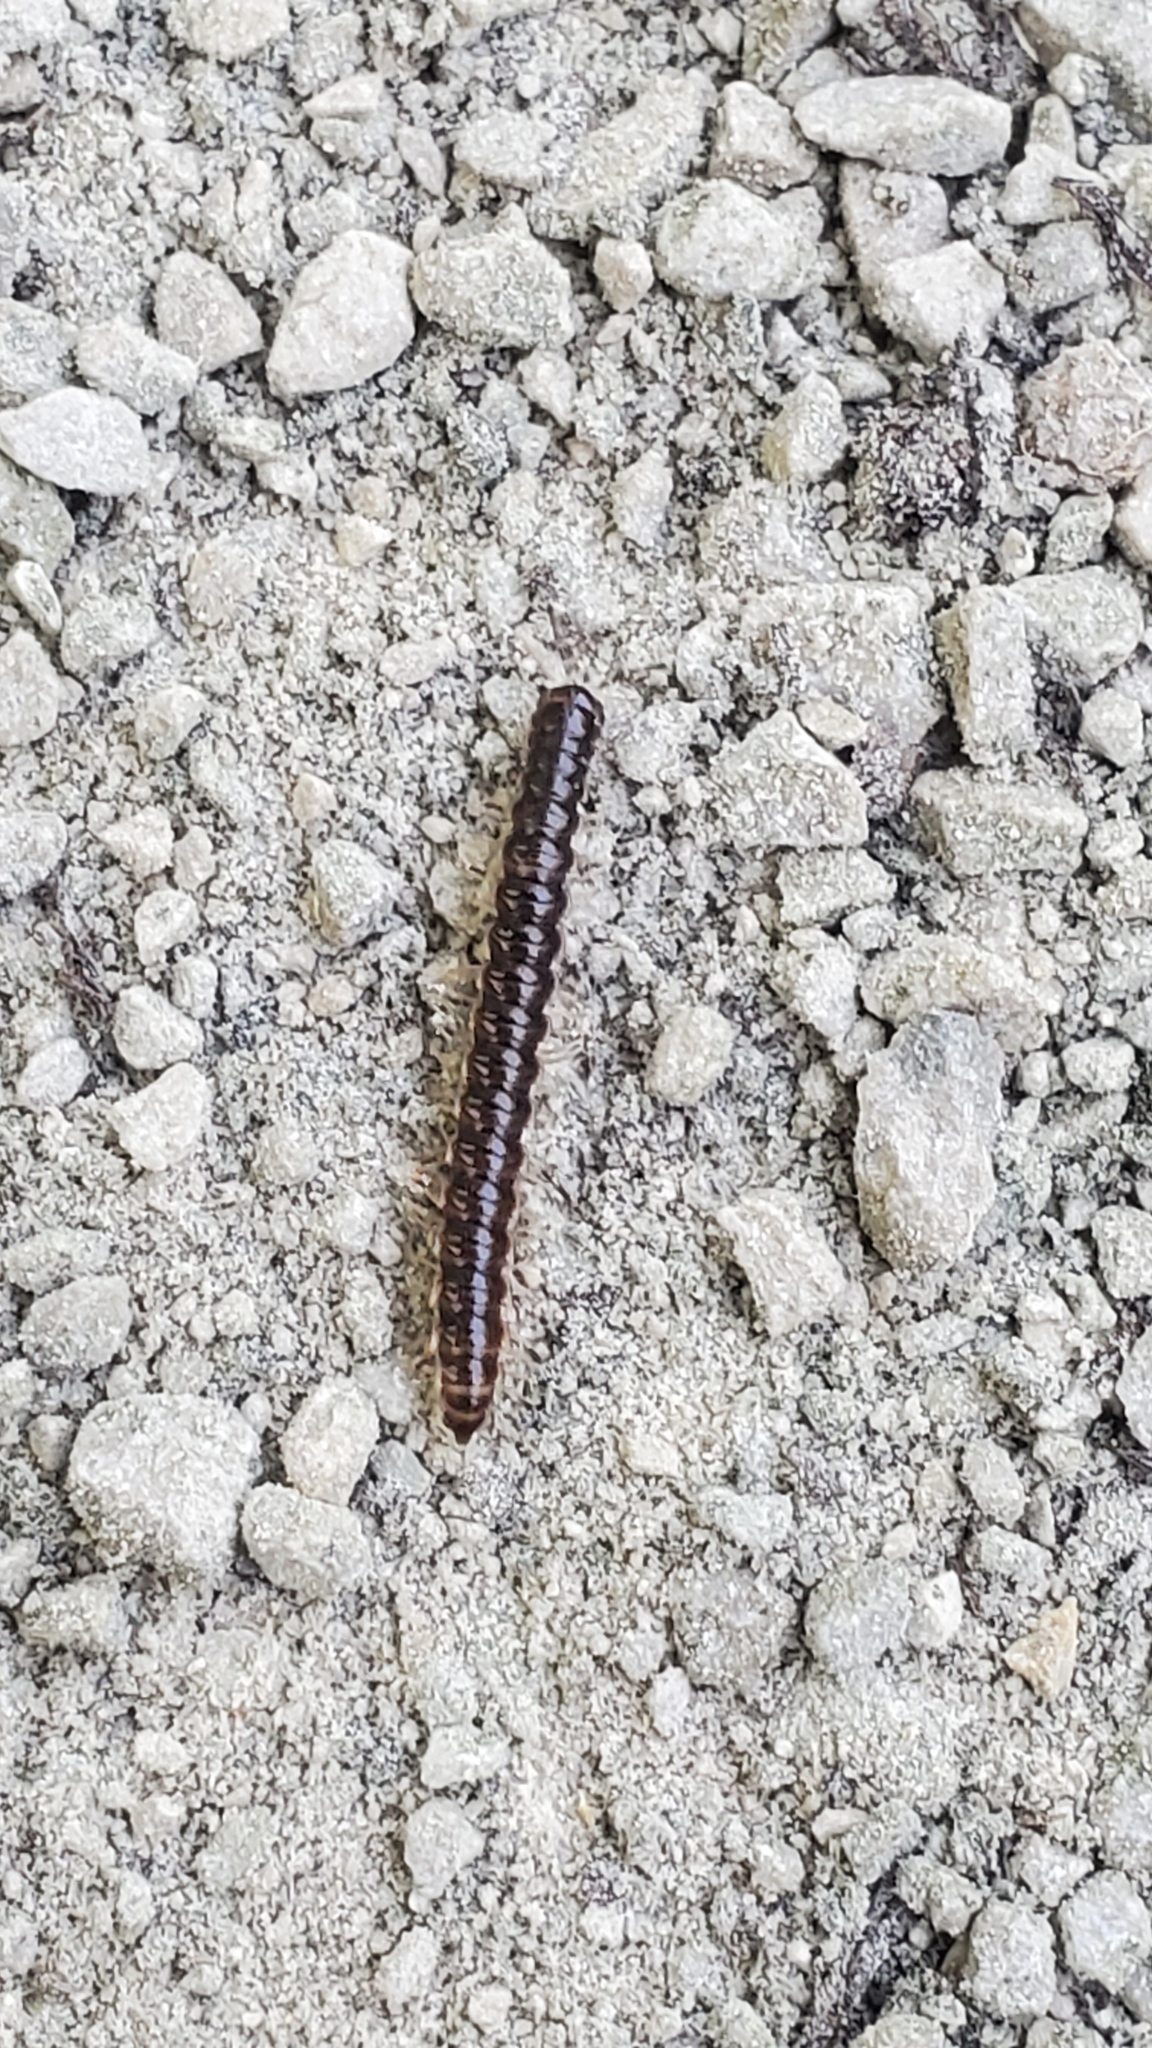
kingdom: Animalia
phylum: Arthropoda
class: Diplopoda
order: Polydesmida
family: Paradoxosomatidae
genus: Oxidus
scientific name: Oxidus gracilis
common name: Greenhouse millipede
